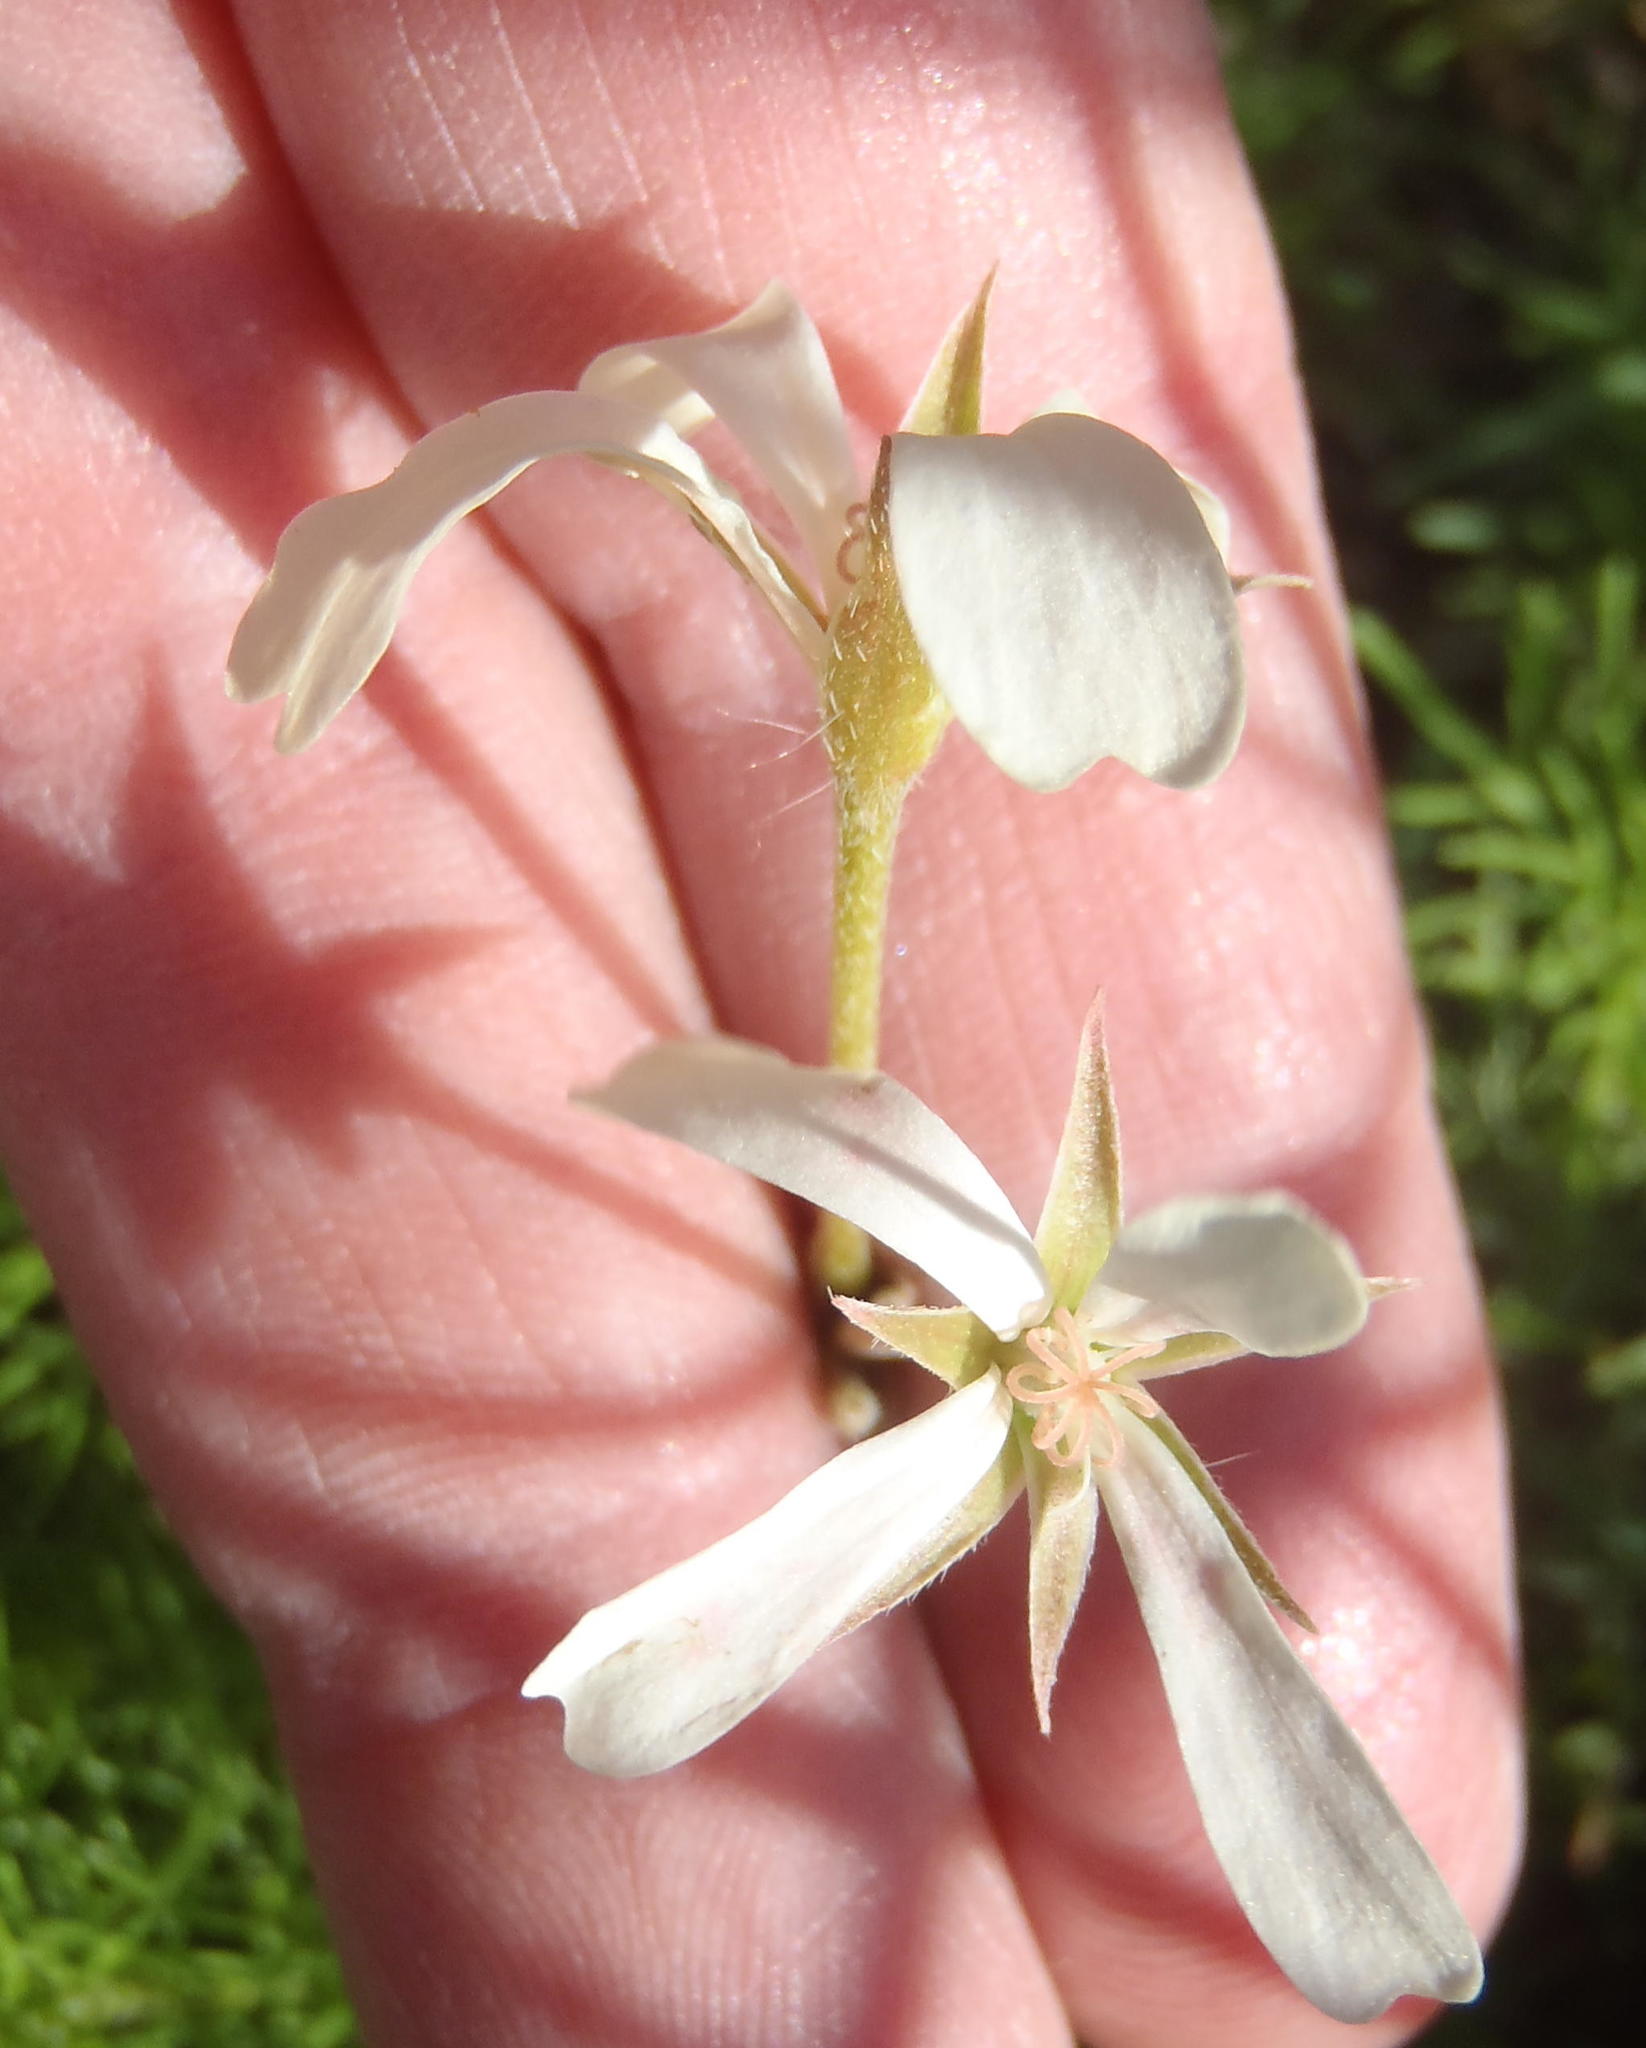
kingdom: Plantae
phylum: Tracheophyta
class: Magnoliopsida
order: Geraniales
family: Geraniaceae
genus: Pelargonium
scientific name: Pelargonium aridum
